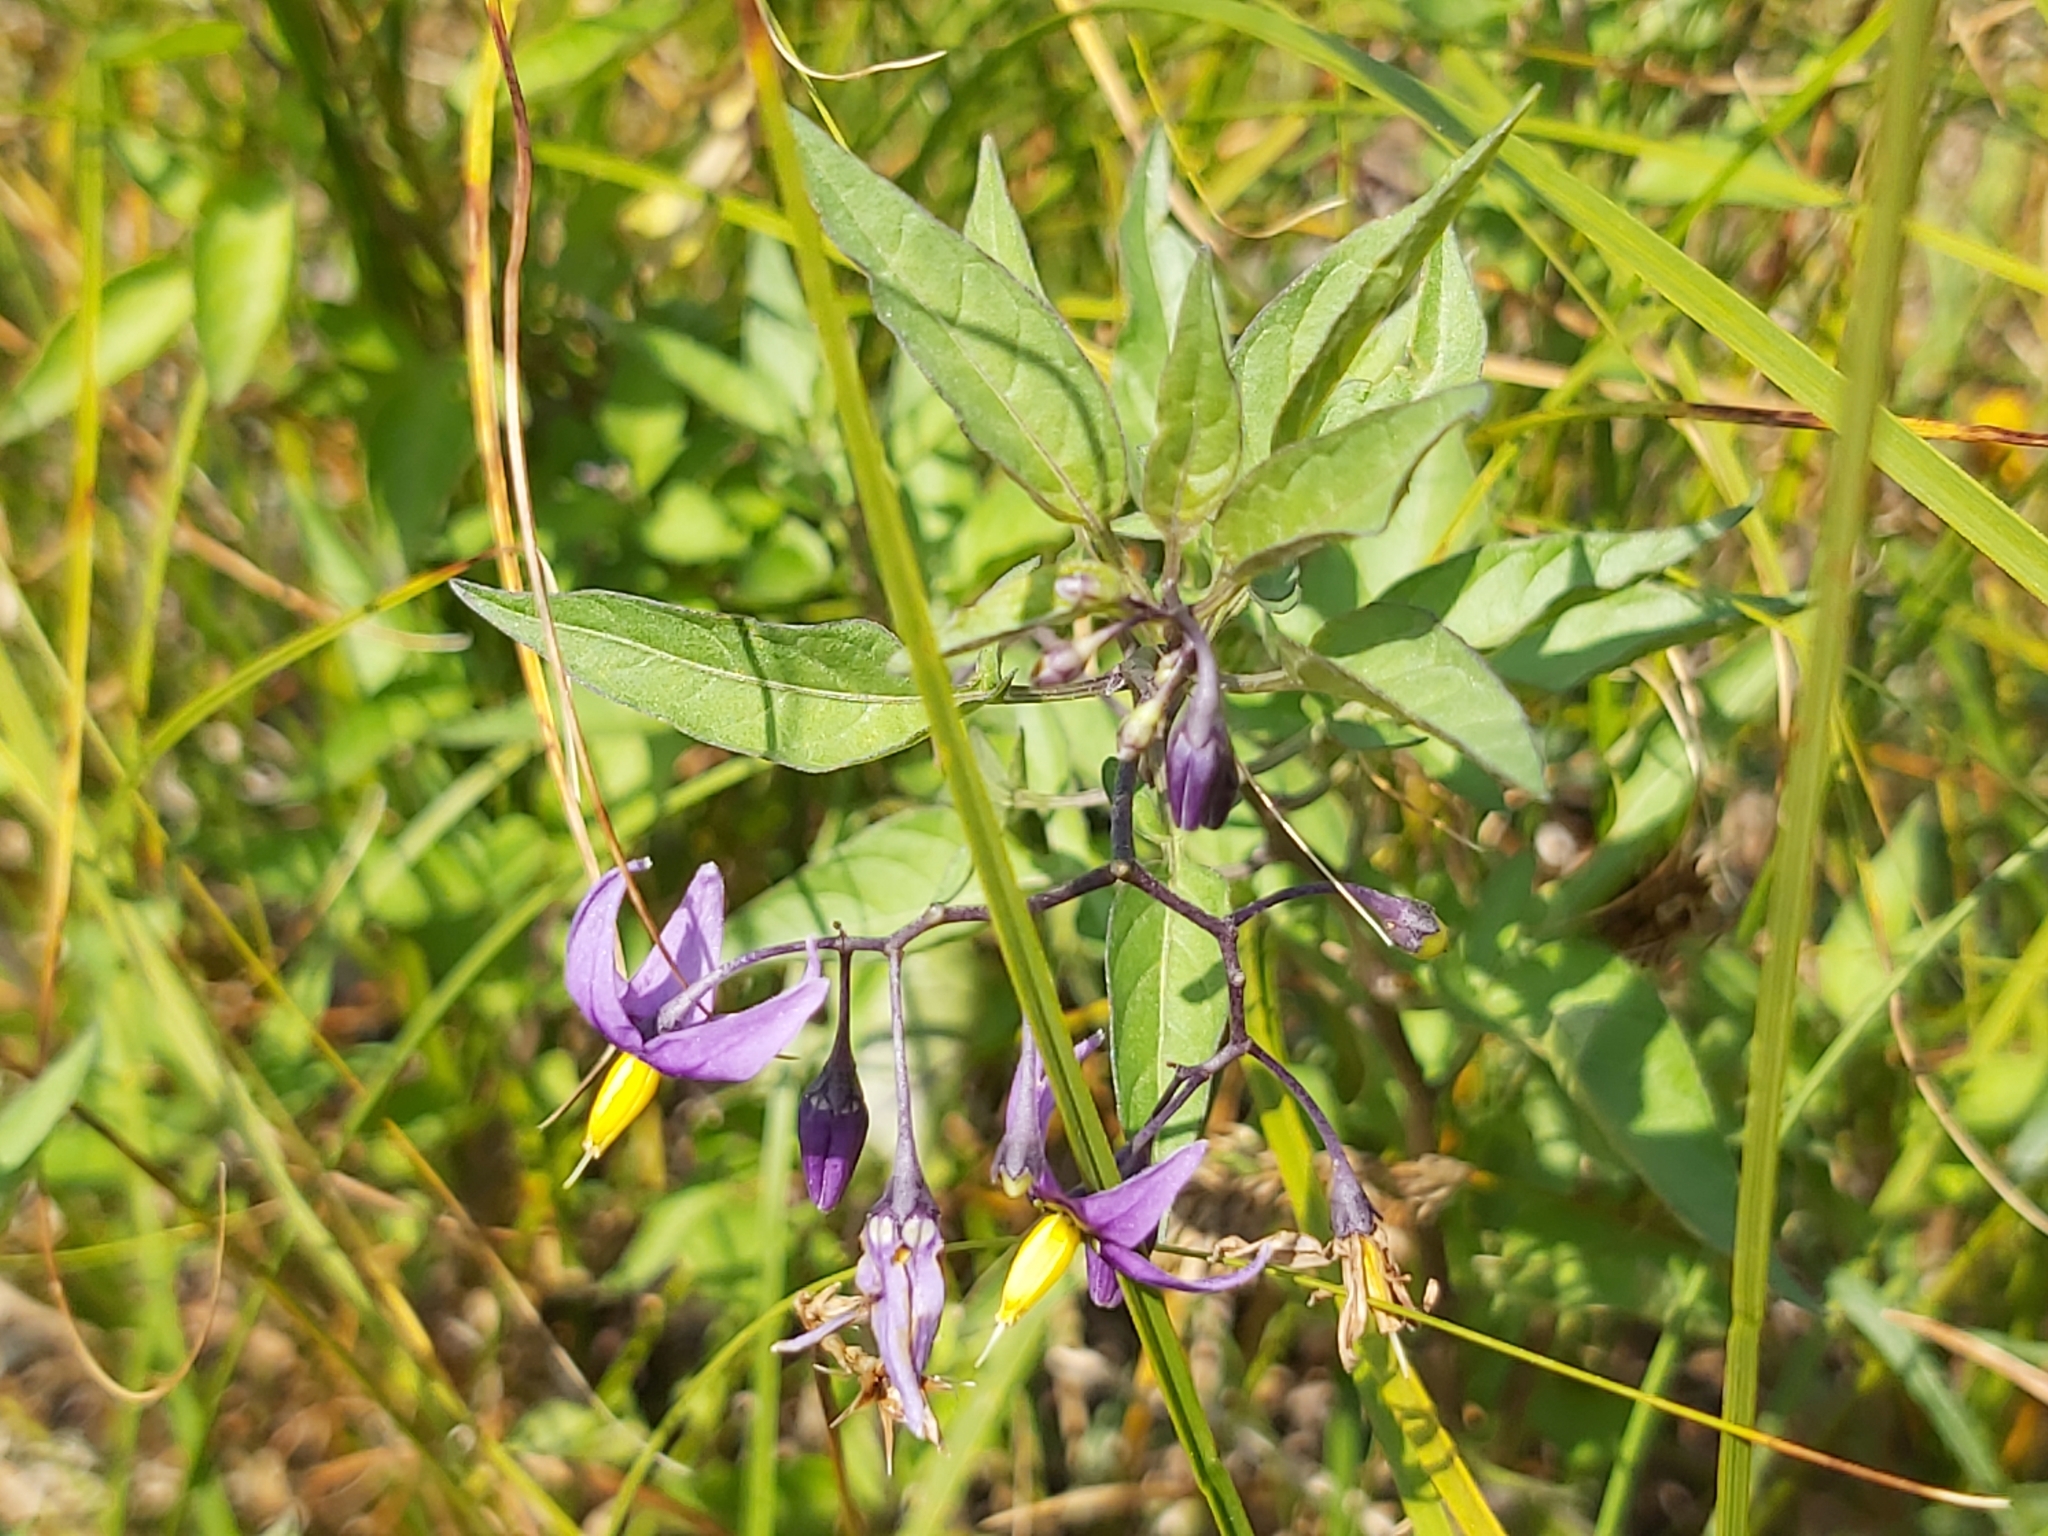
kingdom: Plantae
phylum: Tracheophyta
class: Magnoliopsida
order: Solanales
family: Solanaceae
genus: Solanum
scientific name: Solanum dulcamara
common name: Climbing nightshade
